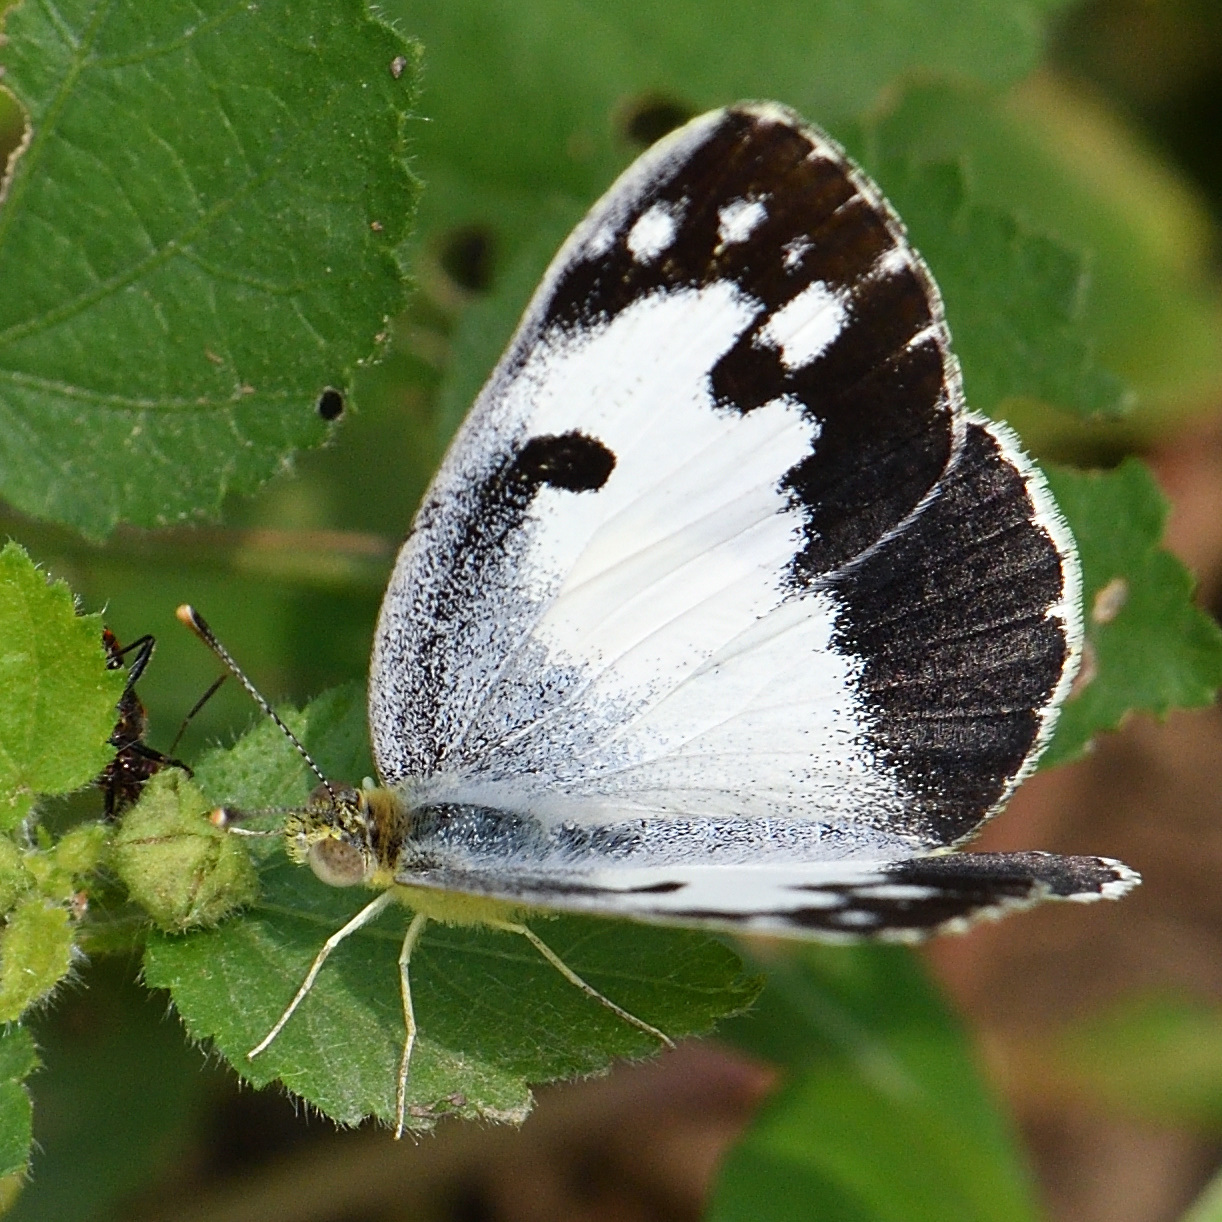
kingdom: Animalia
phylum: Arthropoda
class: Insecta
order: Lepidoptera
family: Pieridae
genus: Colotis
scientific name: Colotis phisadia
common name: Blue spotted arab
